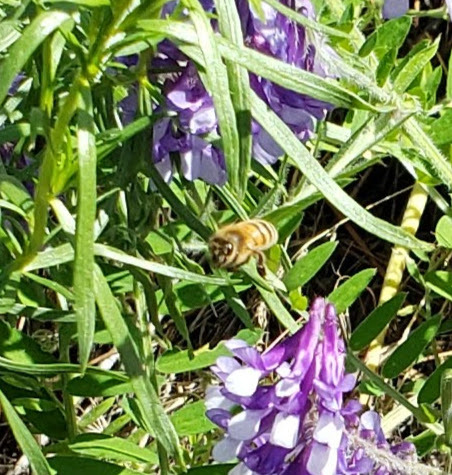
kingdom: Animalia
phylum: Arthropoda
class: Insecta
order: Hymenoptera
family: Apidae
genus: Apis
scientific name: Apis mellifera
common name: Honey bee
